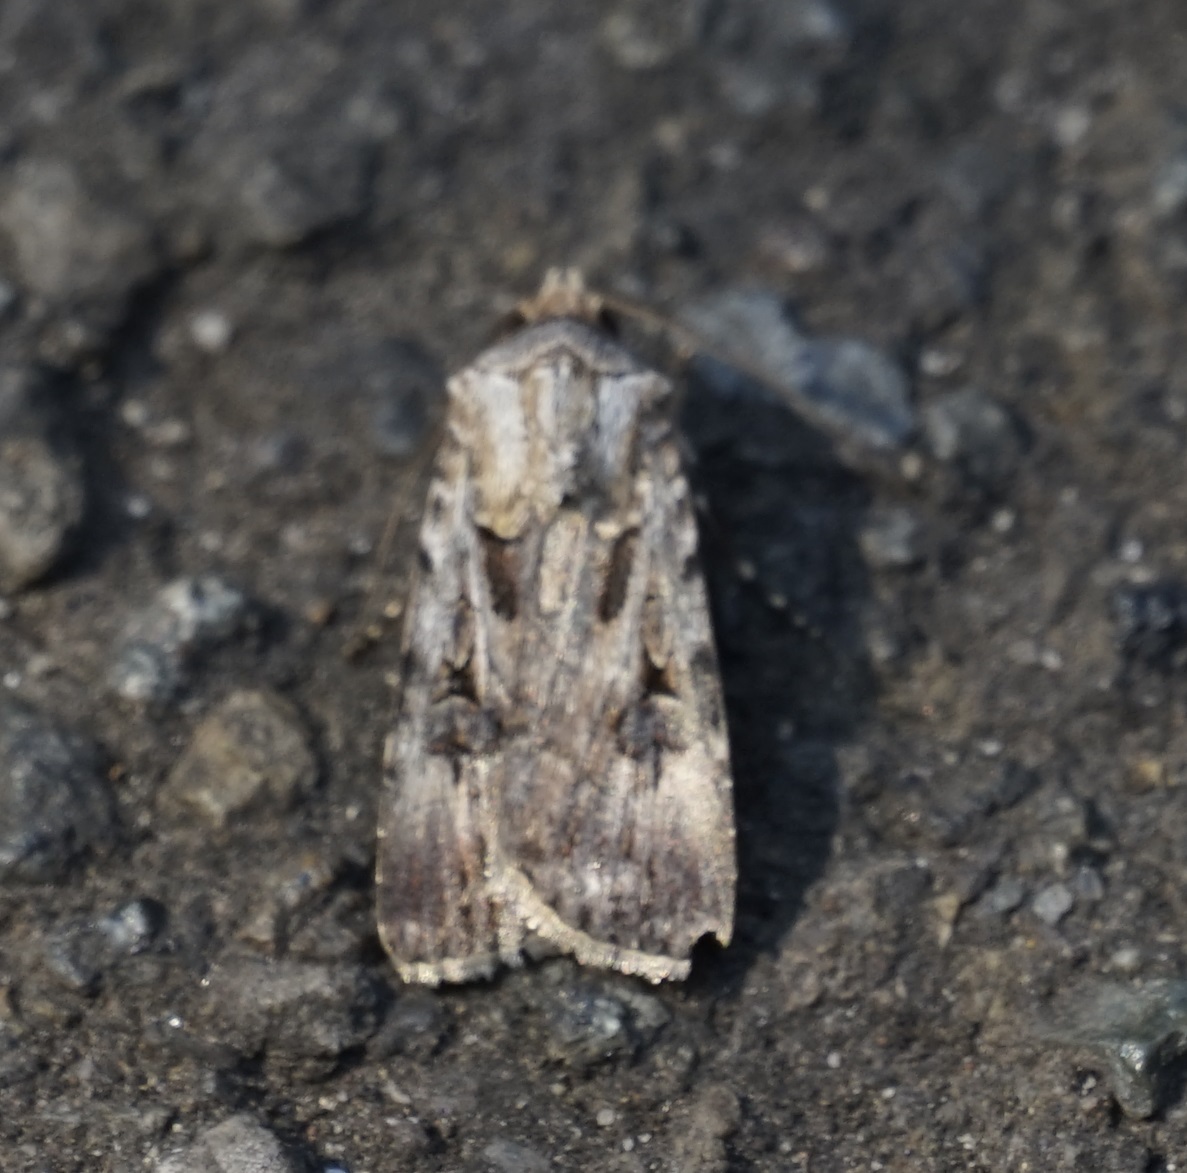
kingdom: Animalia
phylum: Arthropoda
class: Insecta
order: Lepidoptera
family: Noctuidae
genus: Agrotis
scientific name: Agrotis munda
